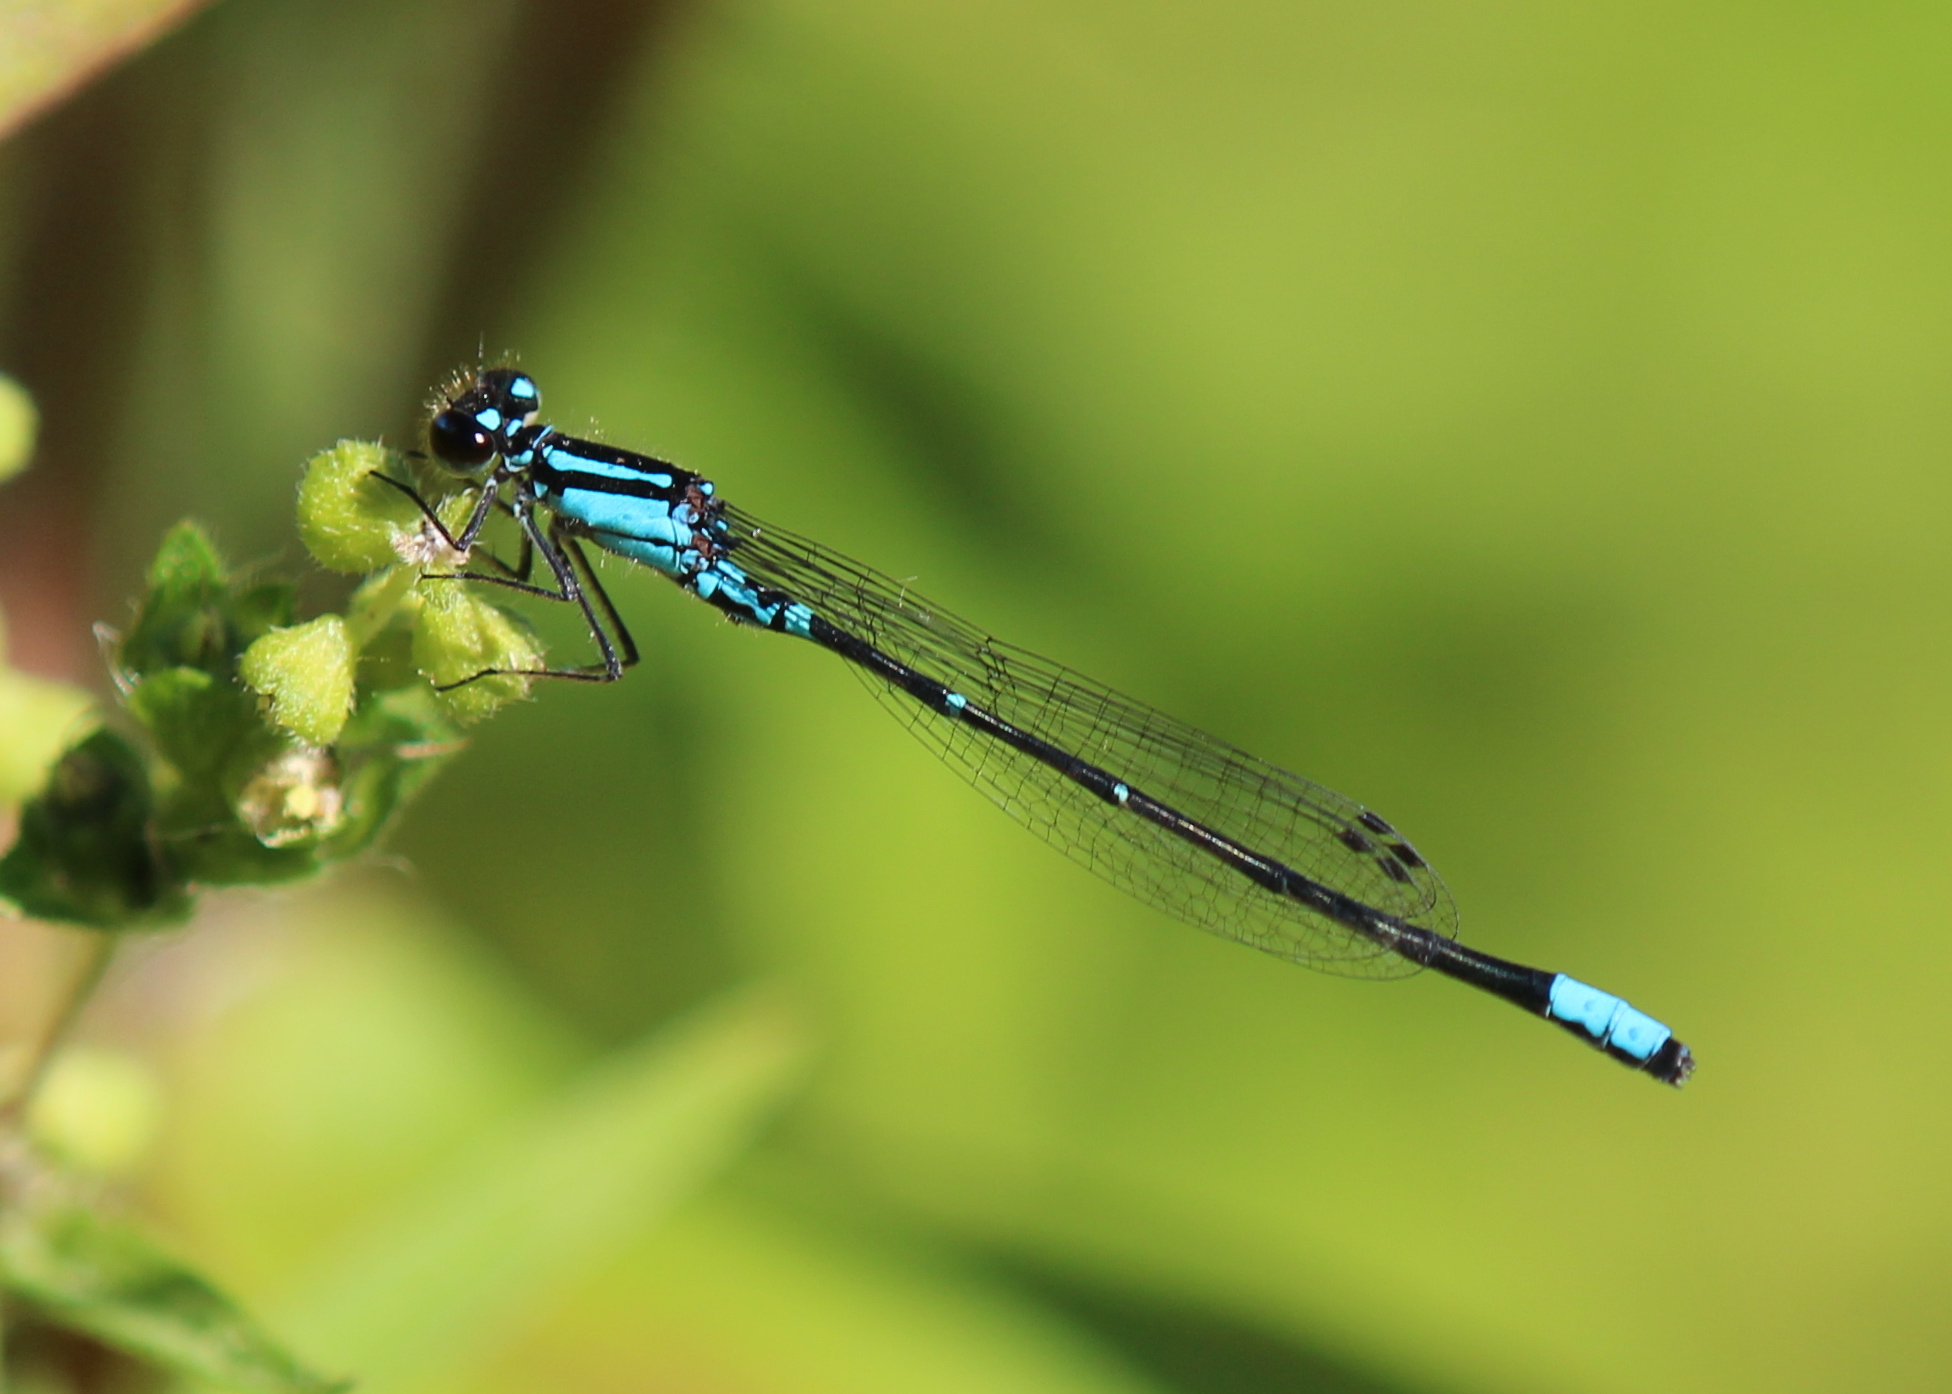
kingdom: Animalia
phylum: Arthropoda
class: Insecta
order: Odonata
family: Coenagrionidae
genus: Enallagma
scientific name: Enallagma geminatum
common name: Skimming bluet
